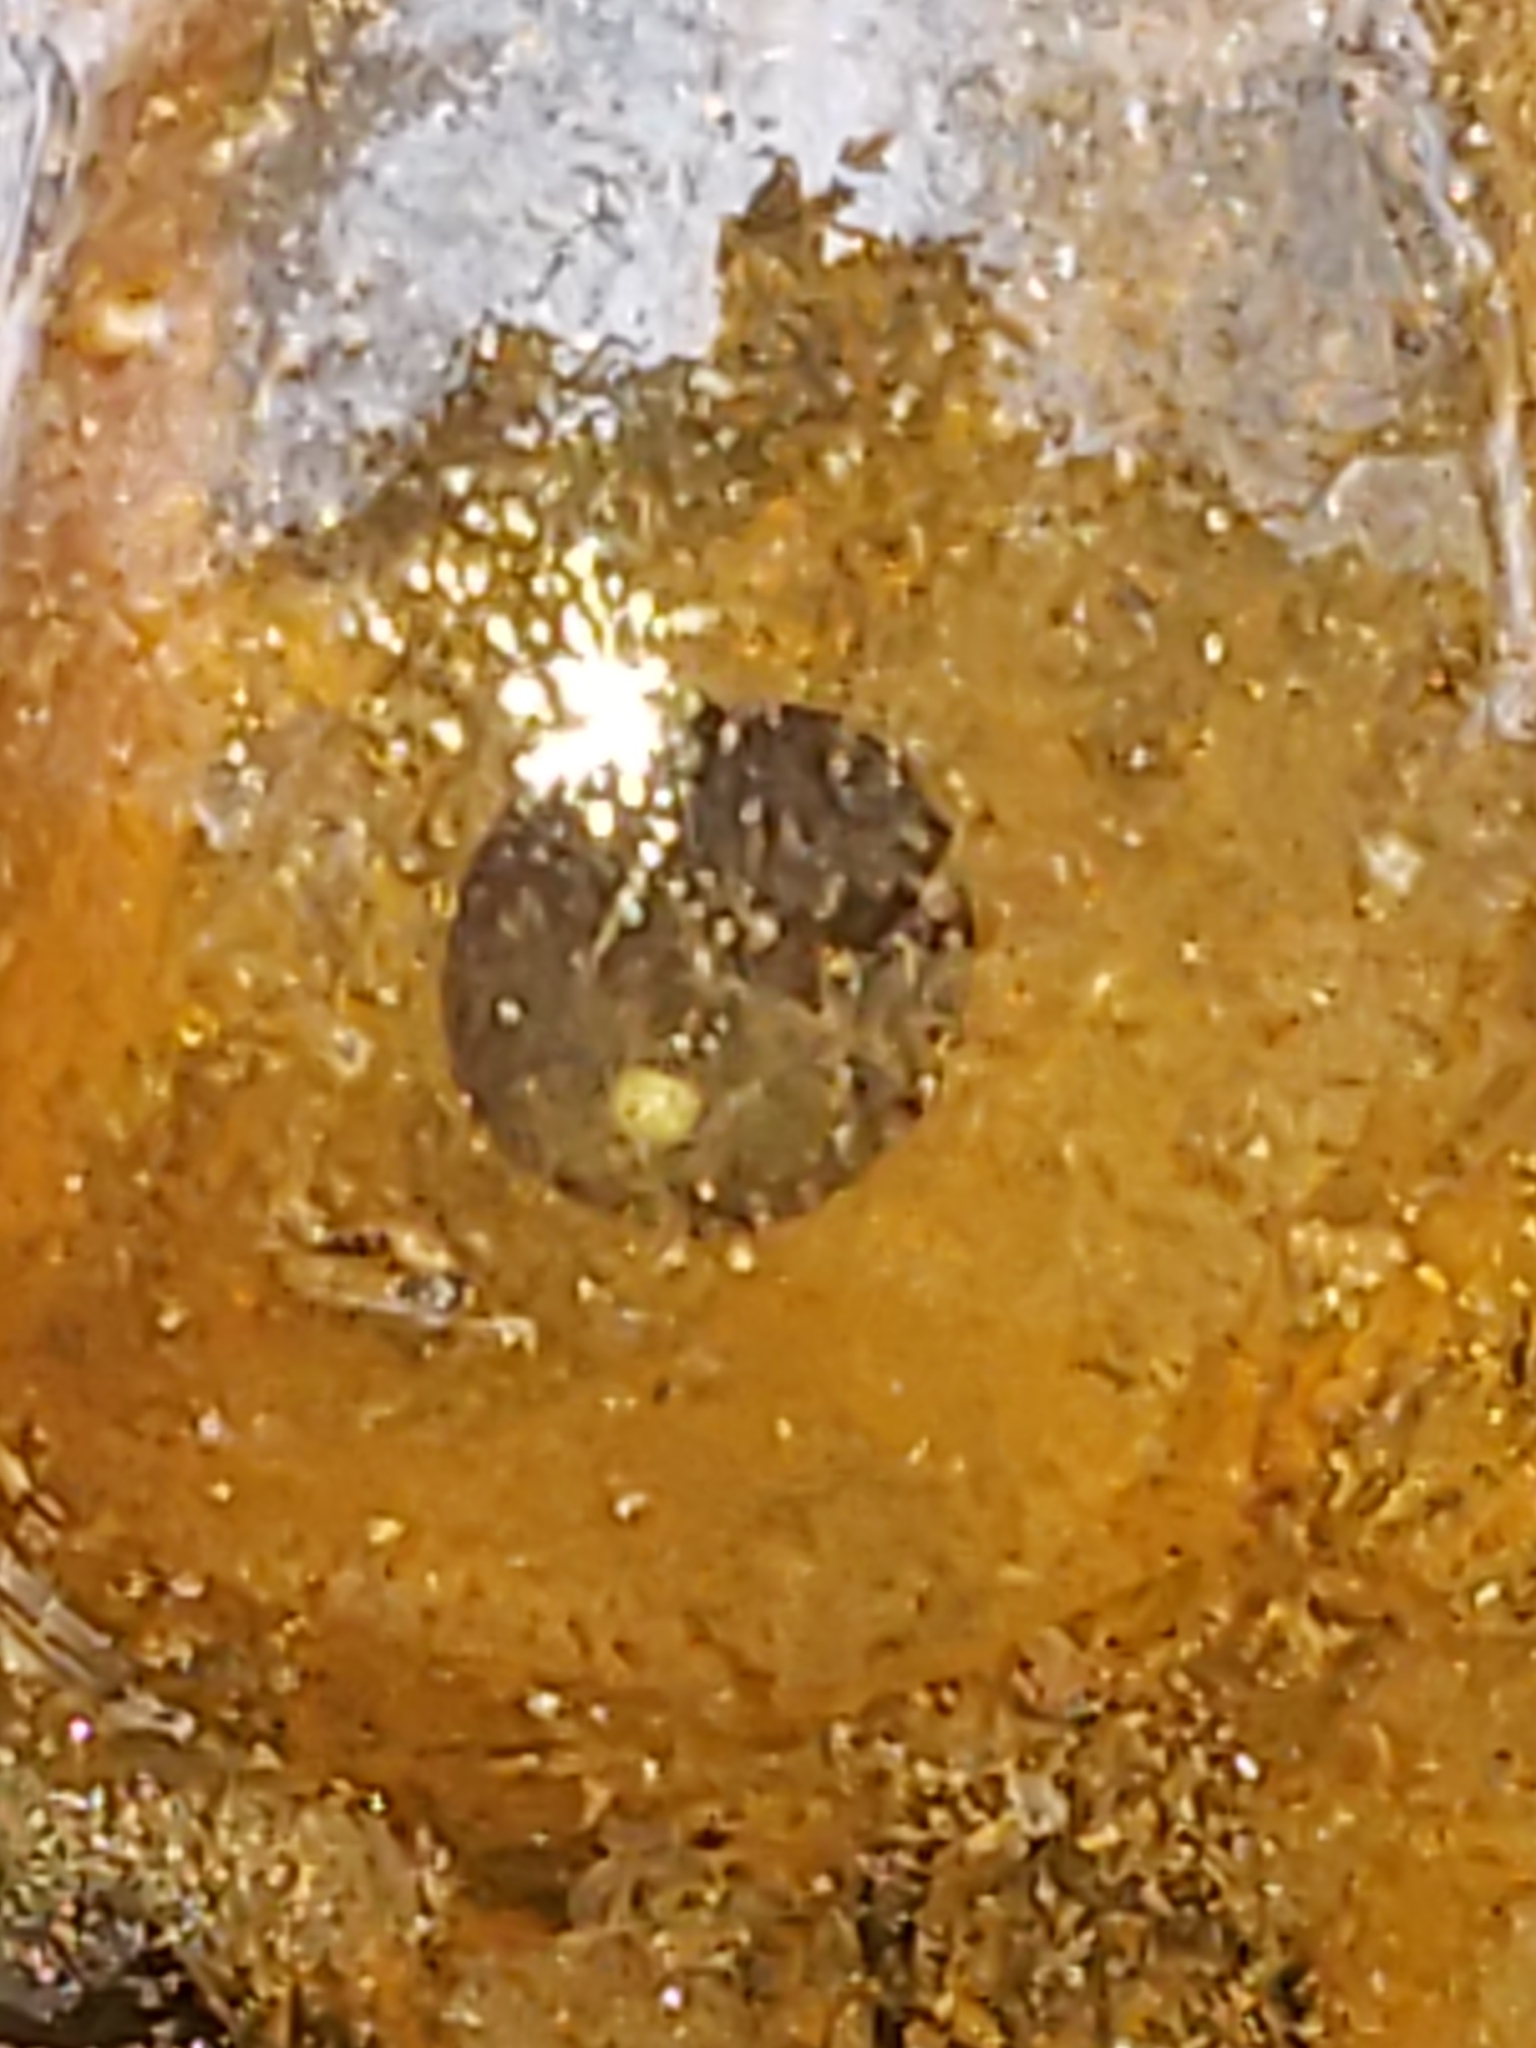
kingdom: Animalia
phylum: Chordata
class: Amphibia
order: Anura
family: Ranidae
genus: Lithobates
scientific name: Lithobates sylvaticus
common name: Wood frog
